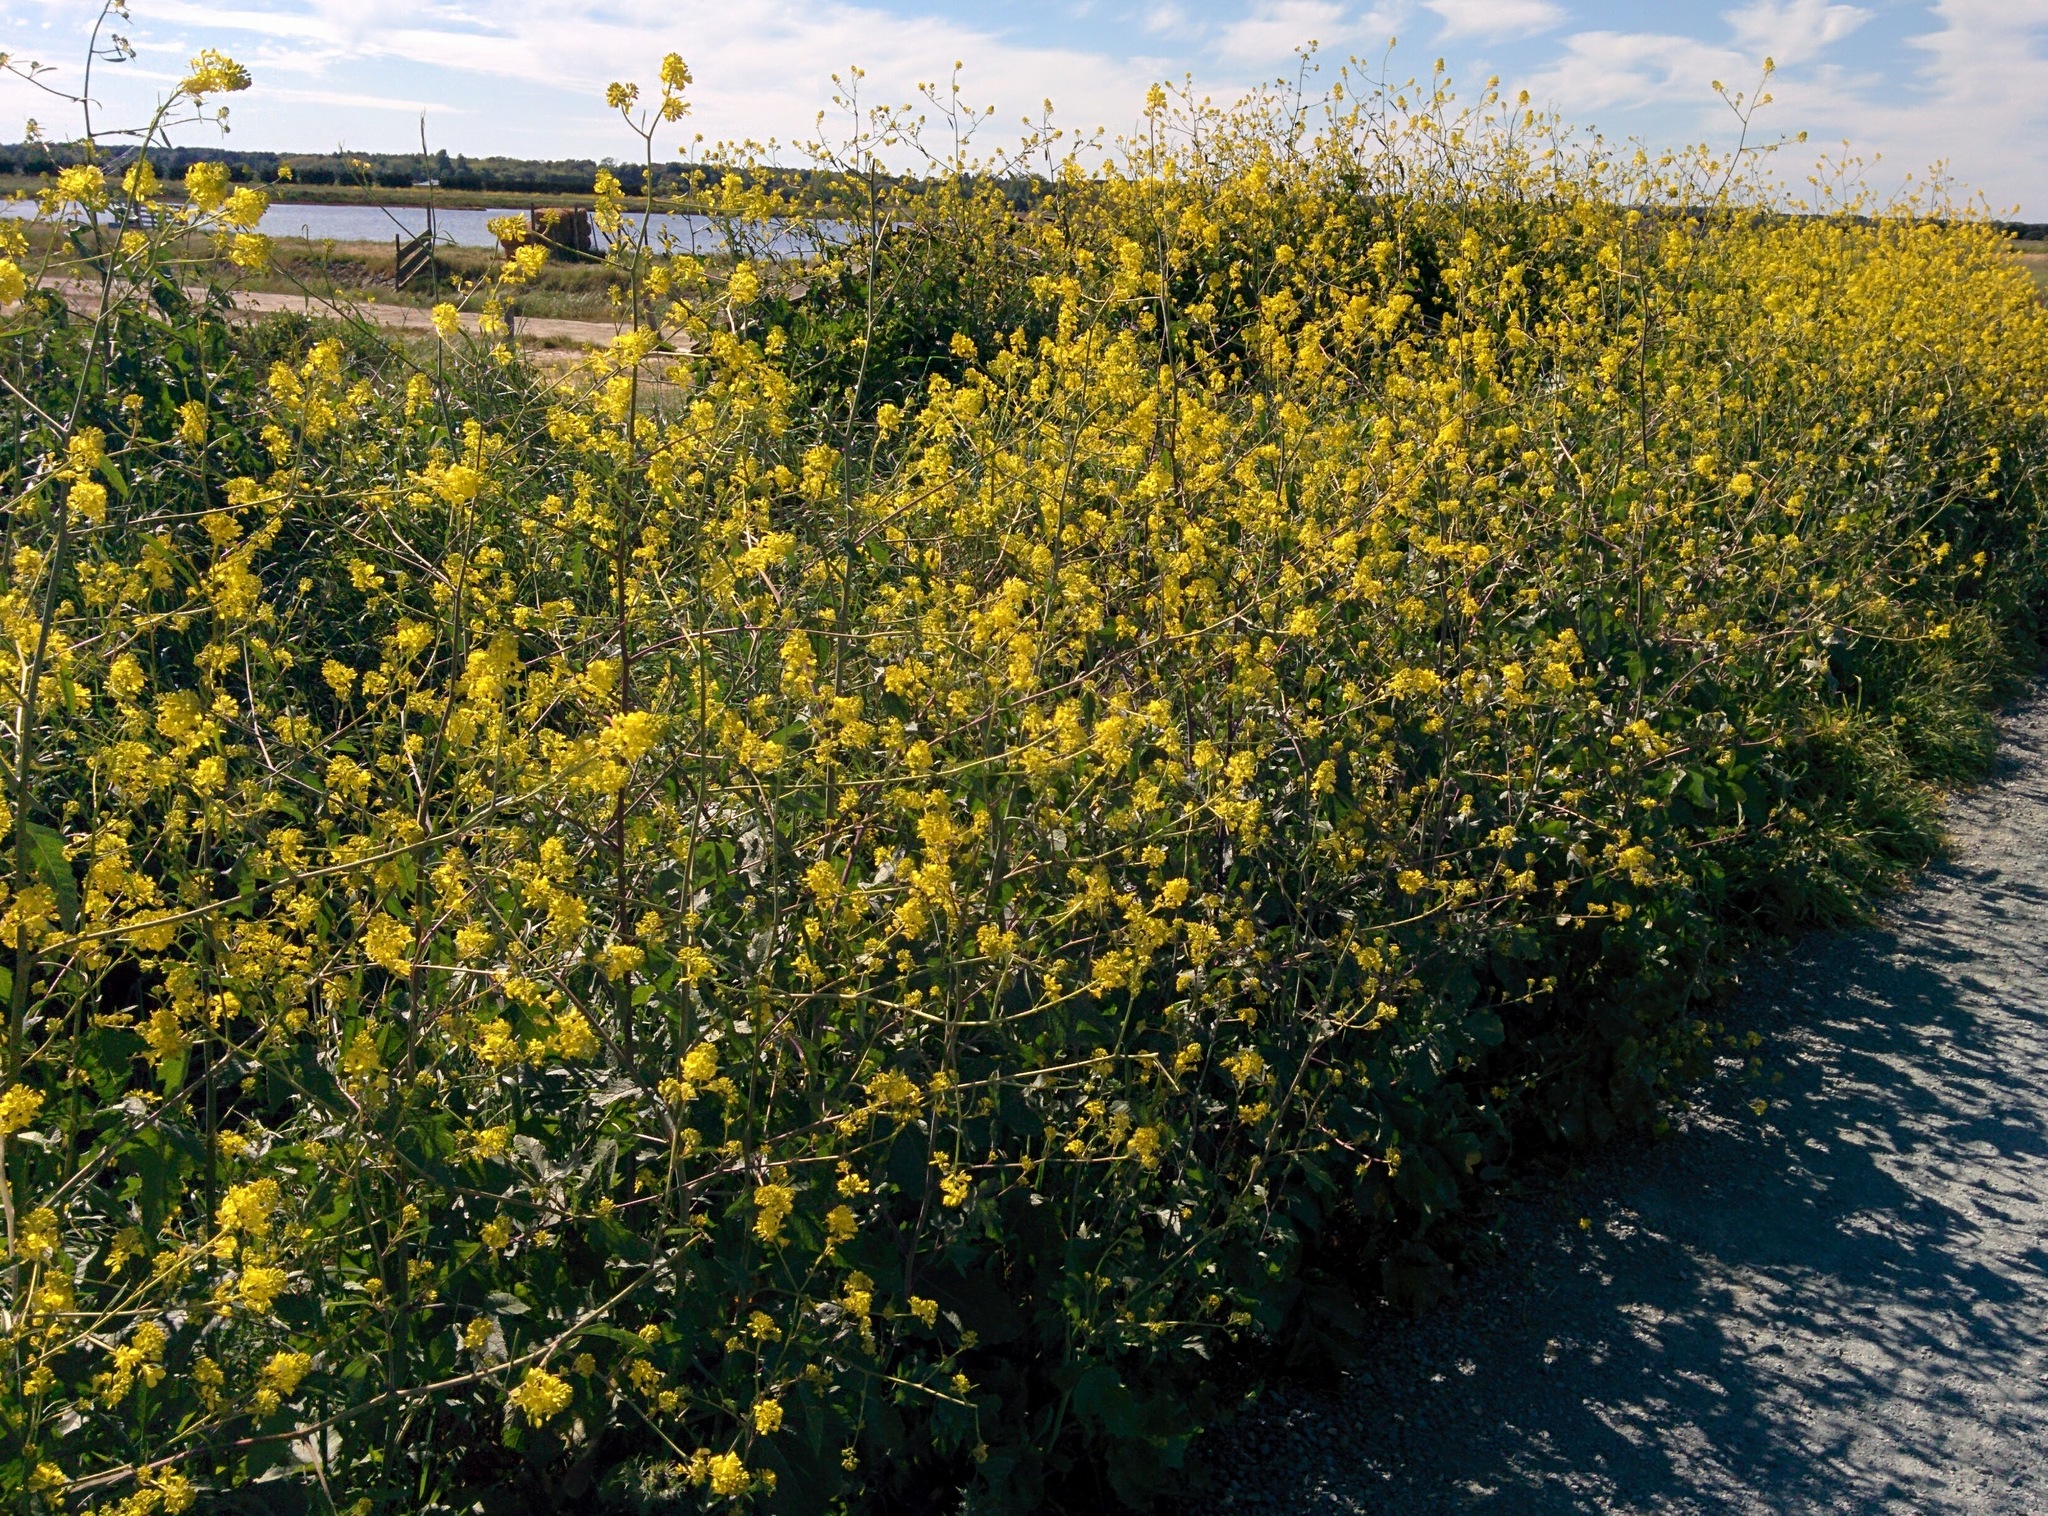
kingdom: Plantae
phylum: Tracheophyta
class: Magnoliopsida
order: Brassicales
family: Brassicaceae
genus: Brassica
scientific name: Brassica nigra
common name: Black mustard
